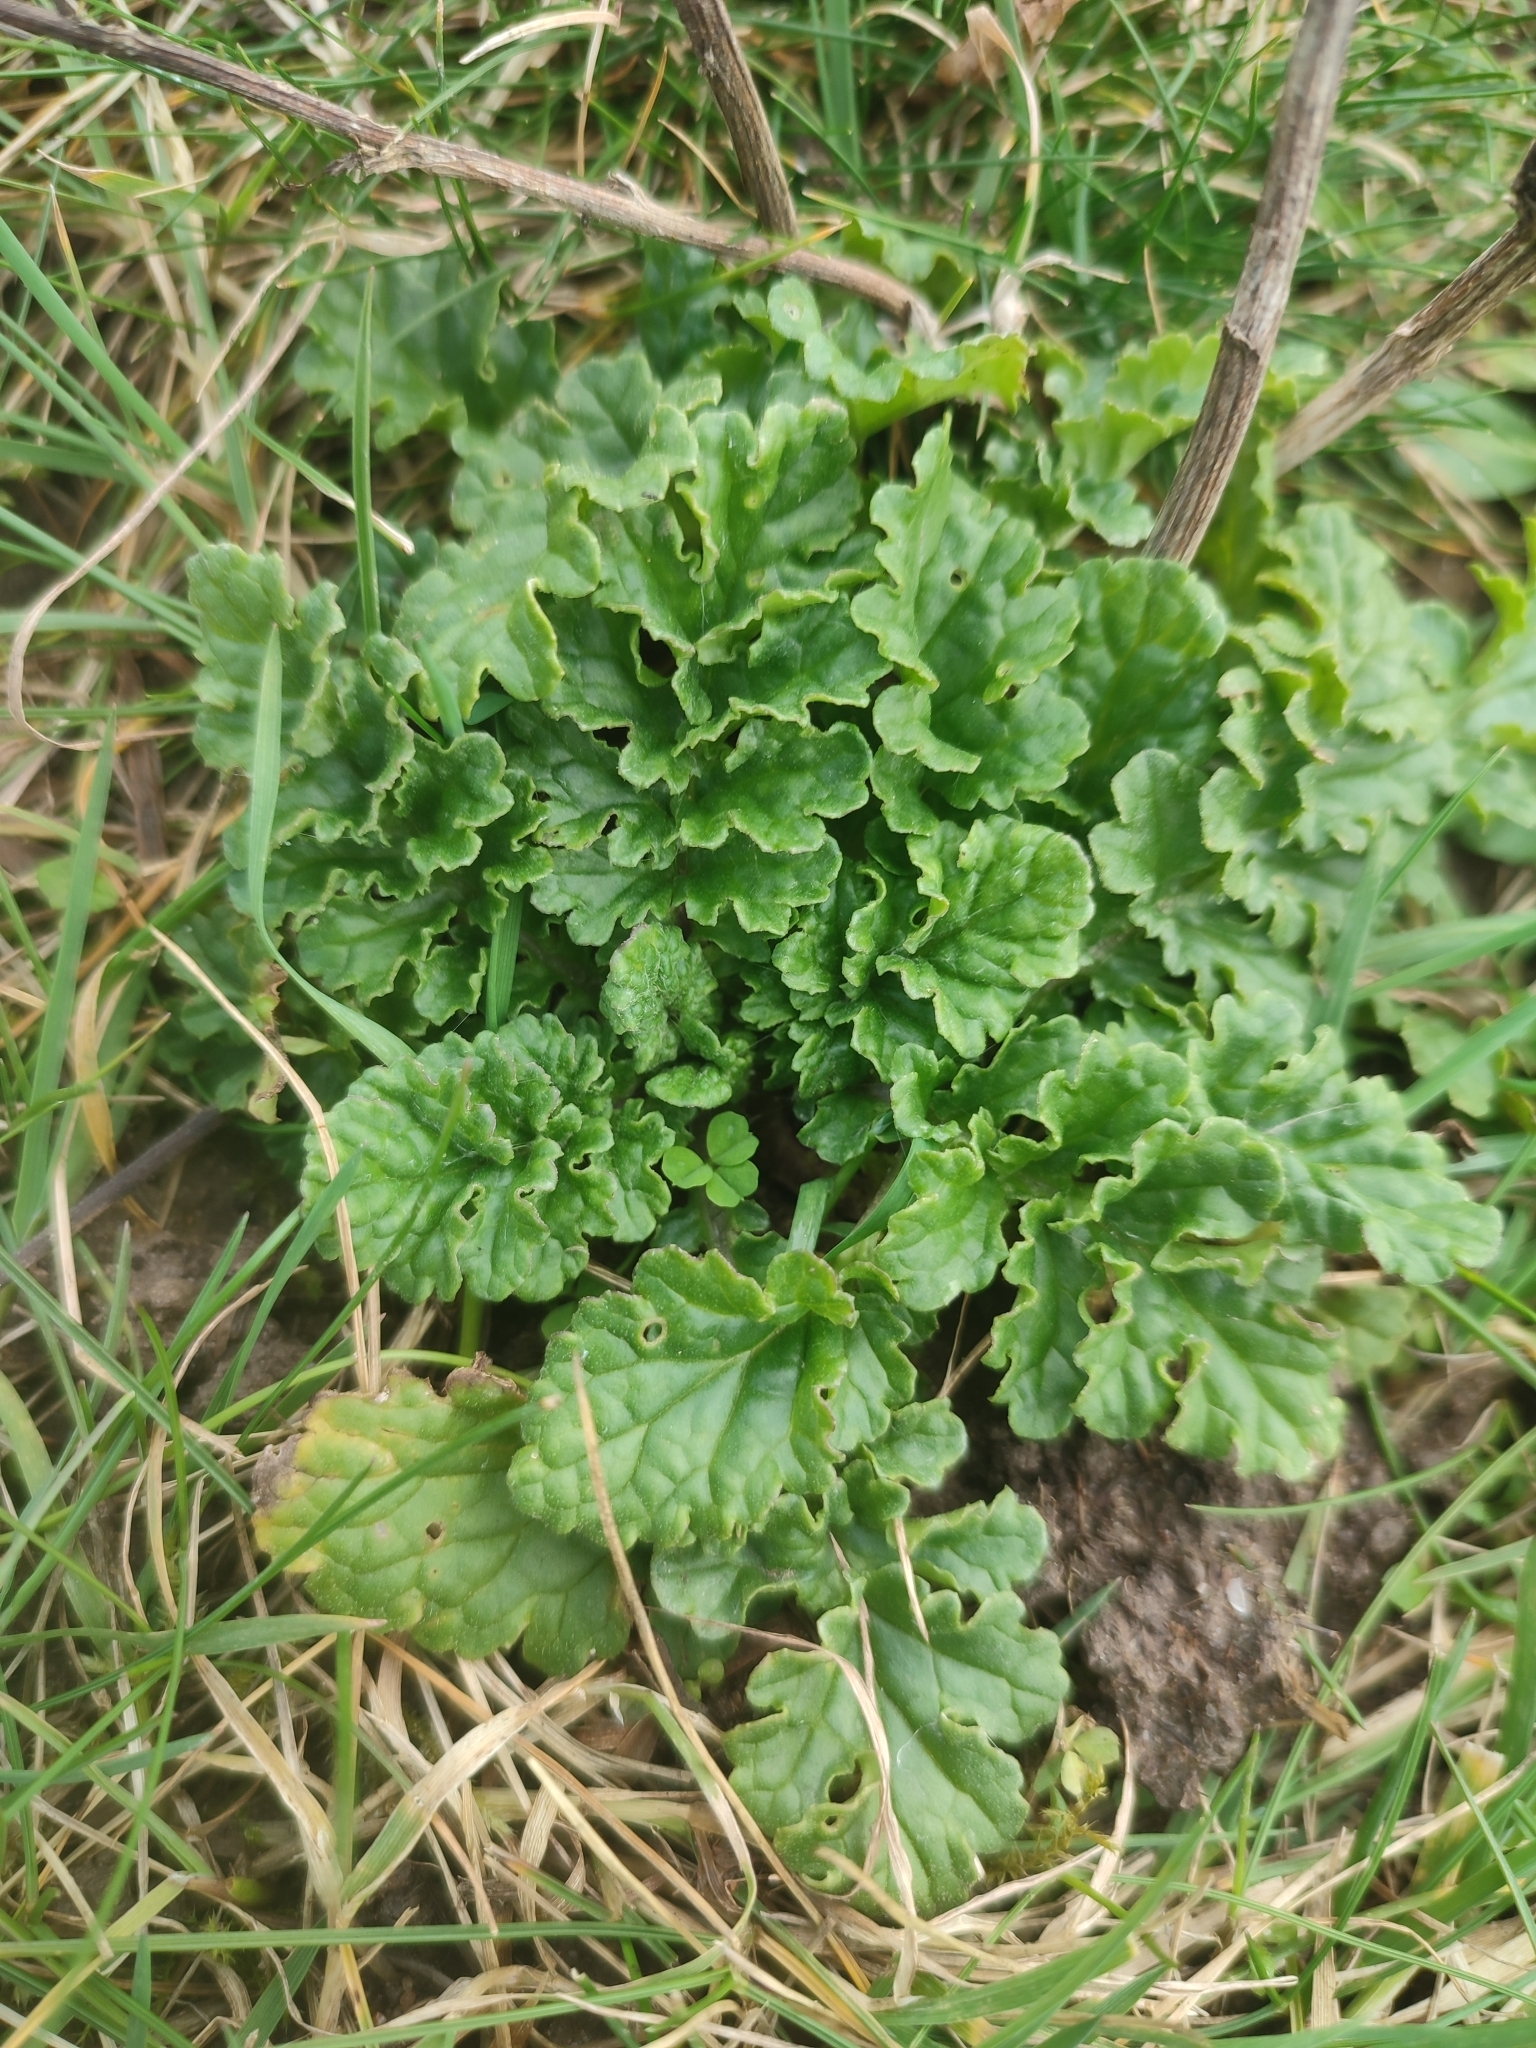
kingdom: Plantae
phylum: Tracheophyta
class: Magnoliopsida
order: Asterales
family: Asteraceae
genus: Jacobaea
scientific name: Jacobaea vulgaris
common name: Stinking willie
